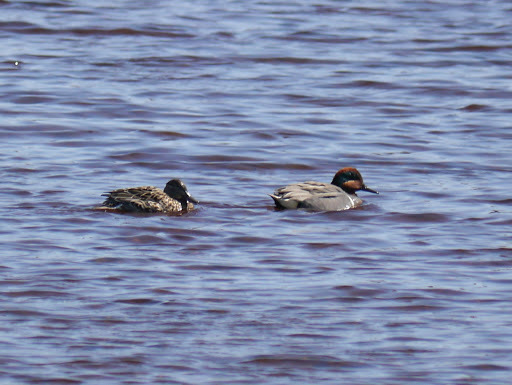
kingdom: Animalia
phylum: Chordata
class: Aves
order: Anseriformes
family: Anatidae
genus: Anas
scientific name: Anas crecca
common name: Eurasian teal
